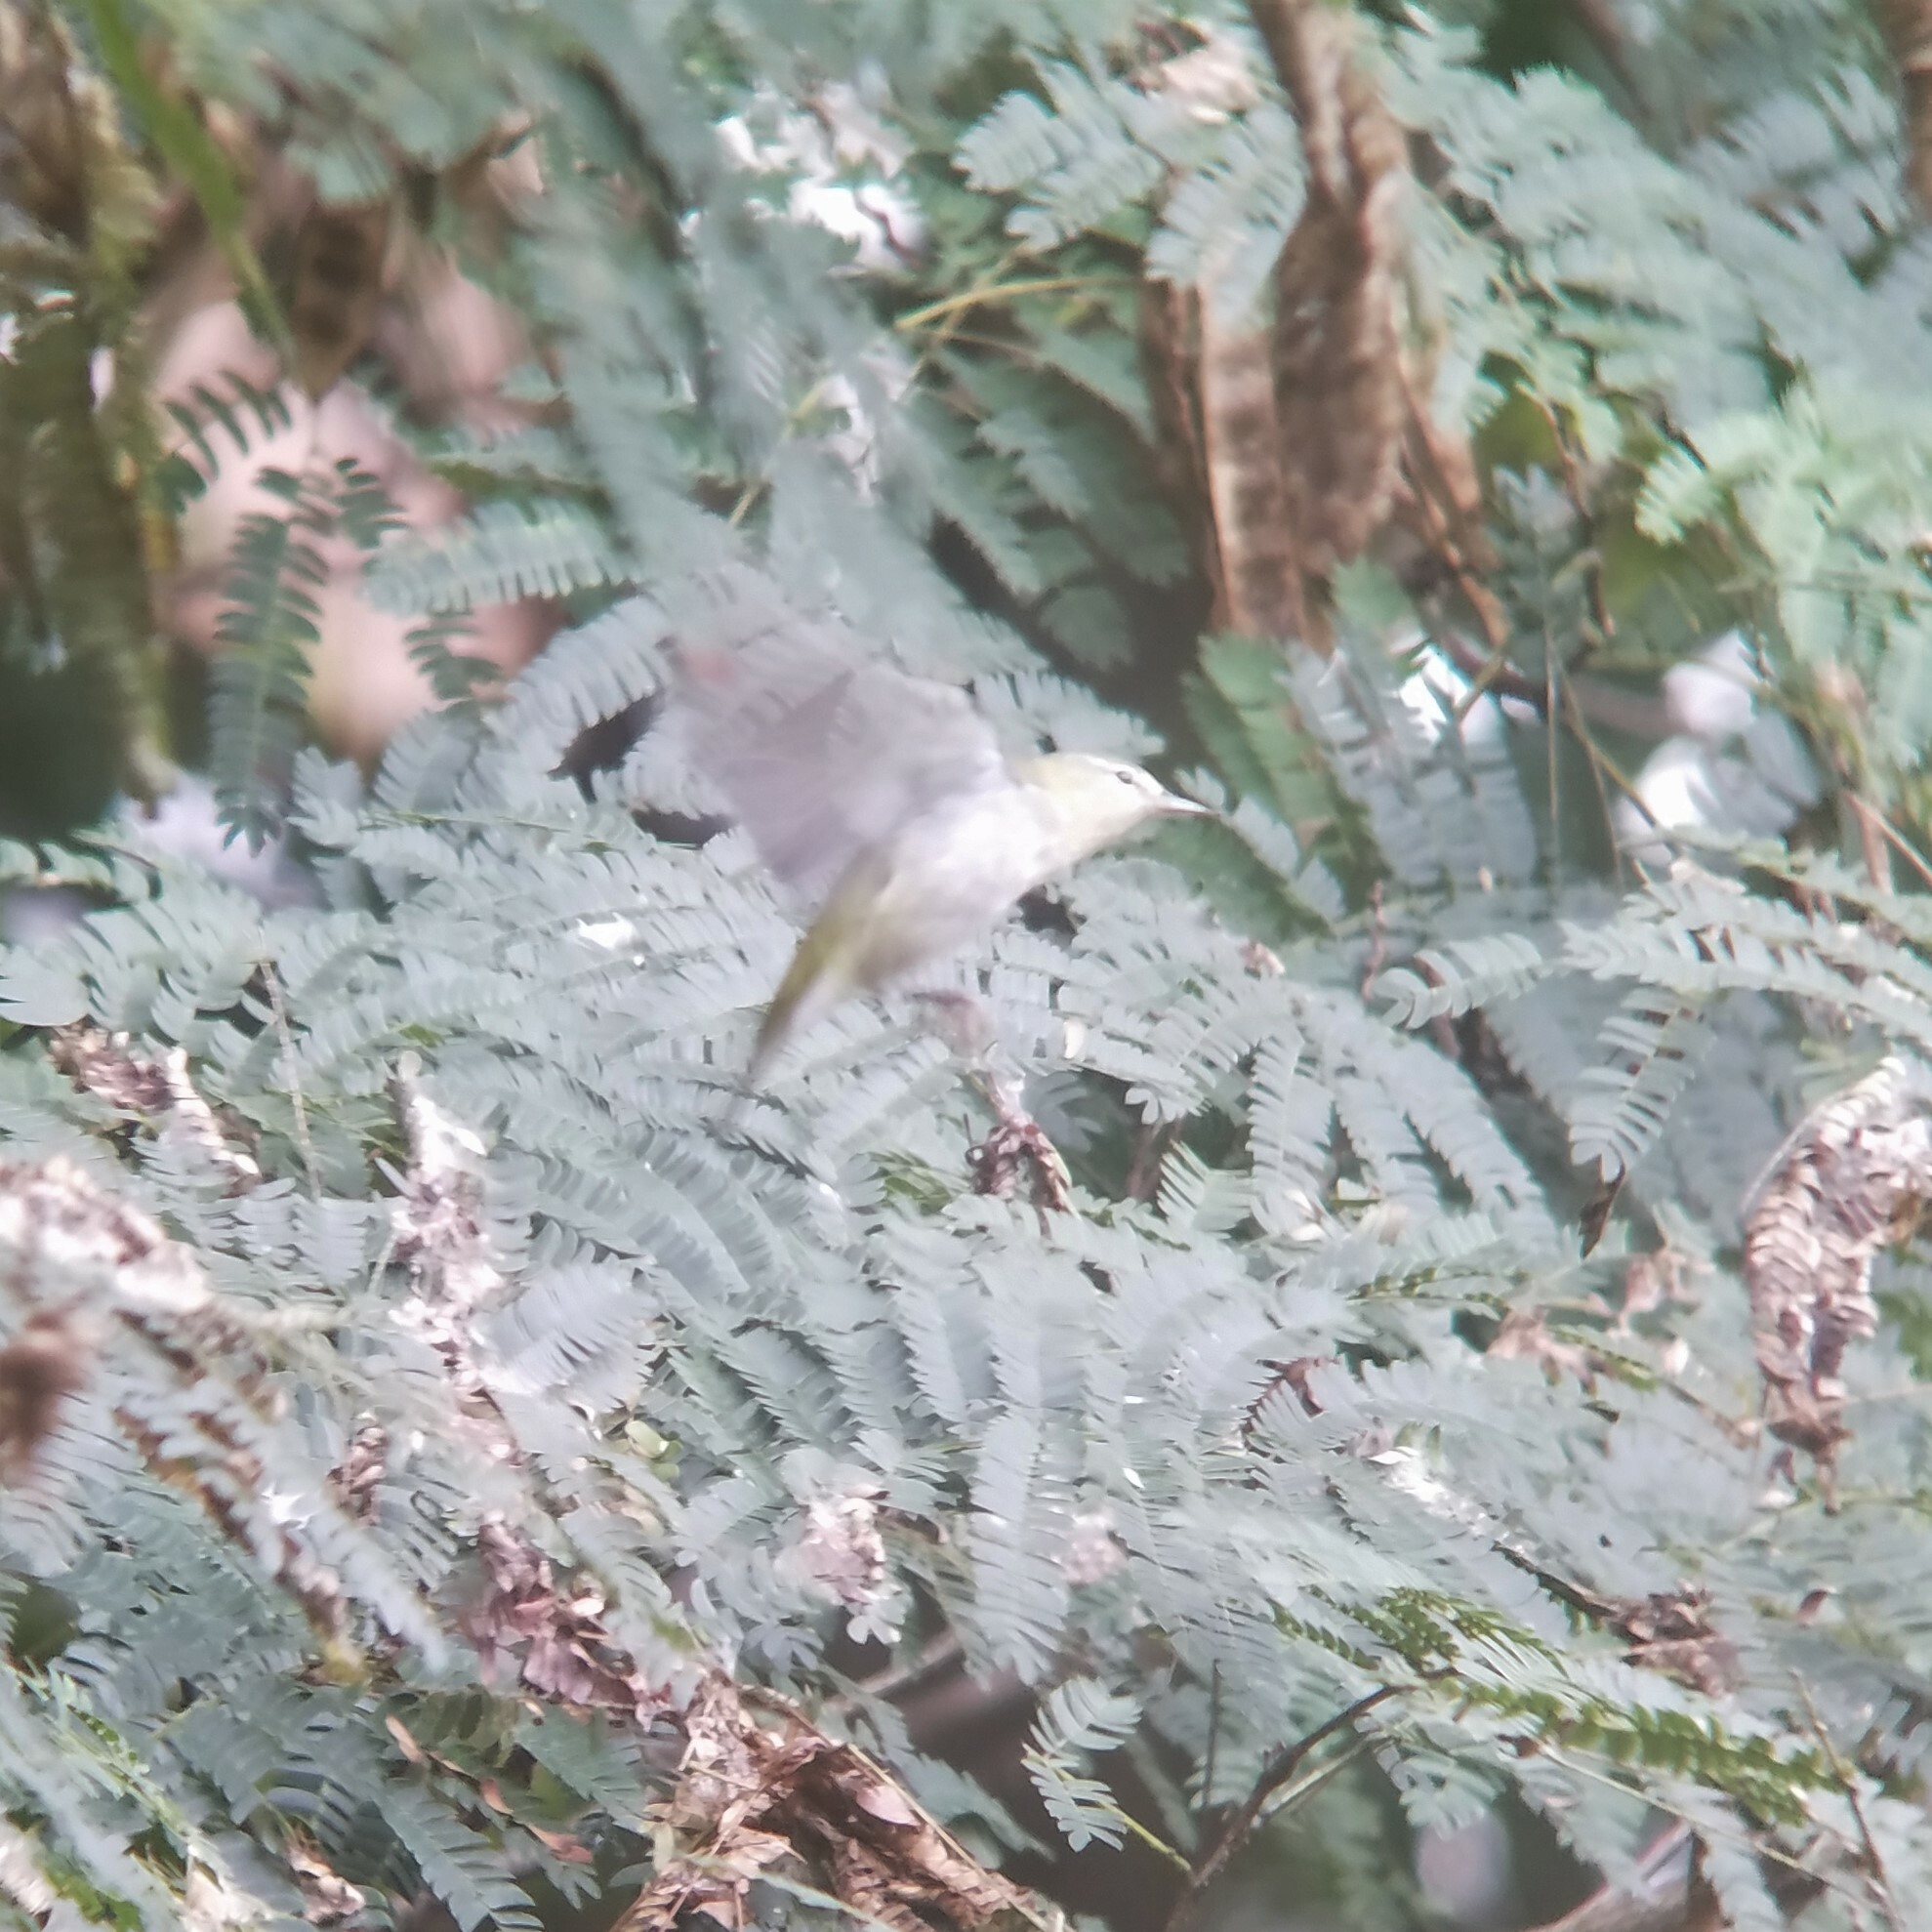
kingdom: Animalia
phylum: Chordata
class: Aves
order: Passeriformes
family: Parulidae
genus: Leiothlypis
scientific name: Leiothlypis peregrina
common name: Tennessee warbler
